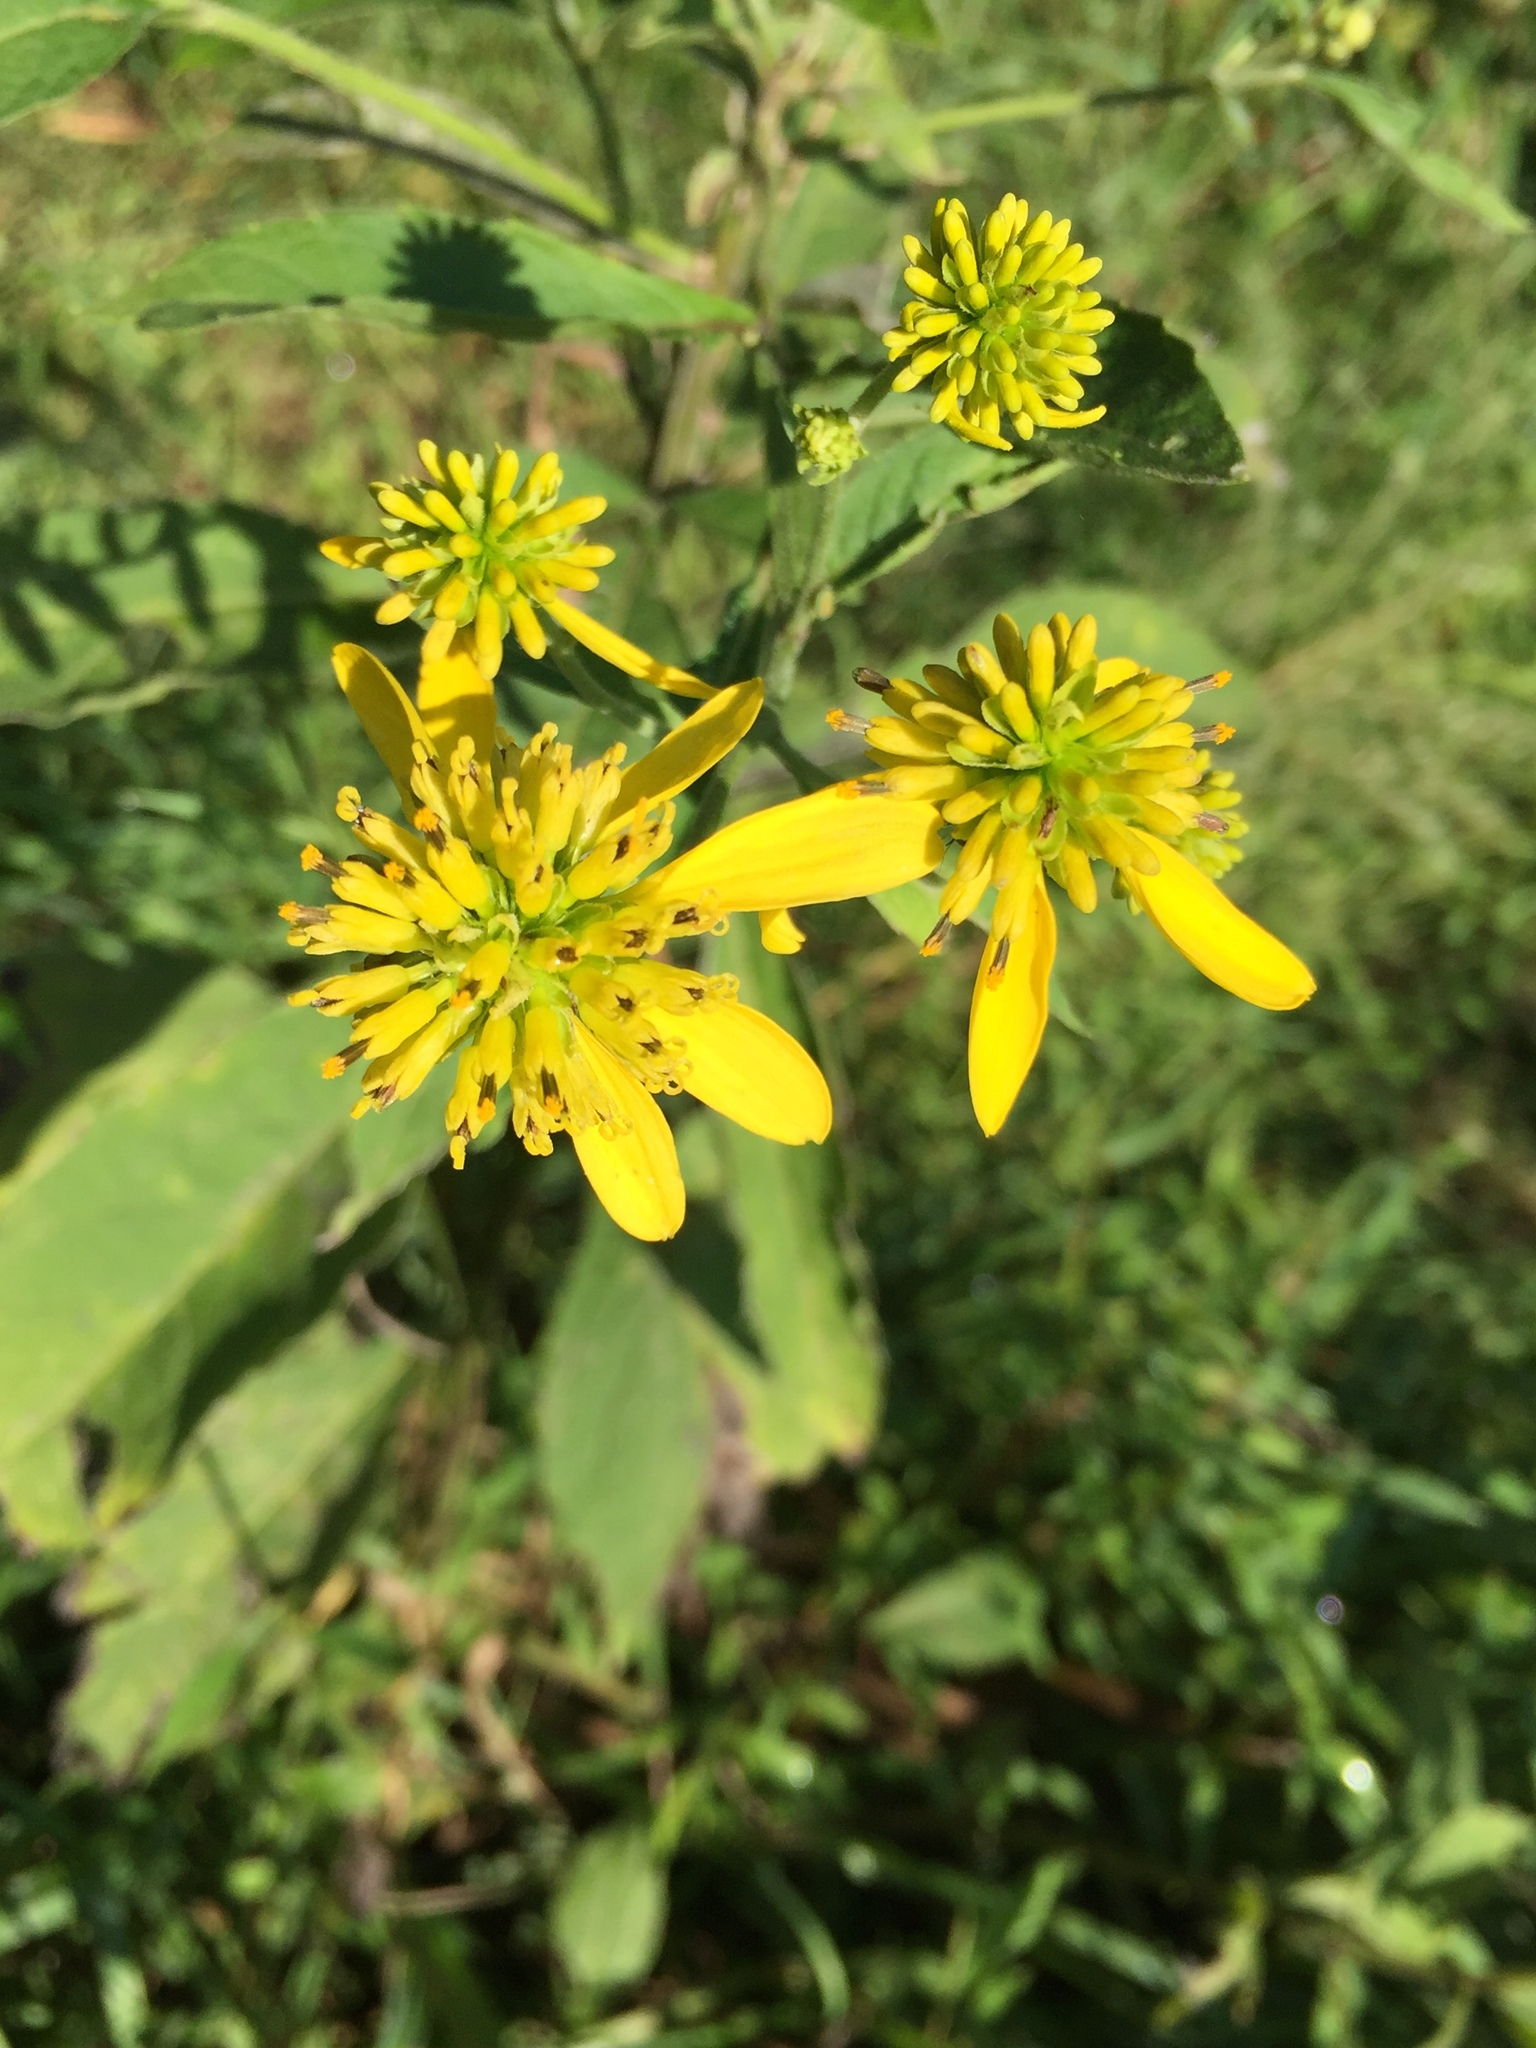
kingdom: Plantae
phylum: Tracheophyta
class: Magnoliopsida
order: Asterales
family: Asteraceae
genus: Verbesina
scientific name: Verbesina alternifolia
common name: Wingstem
